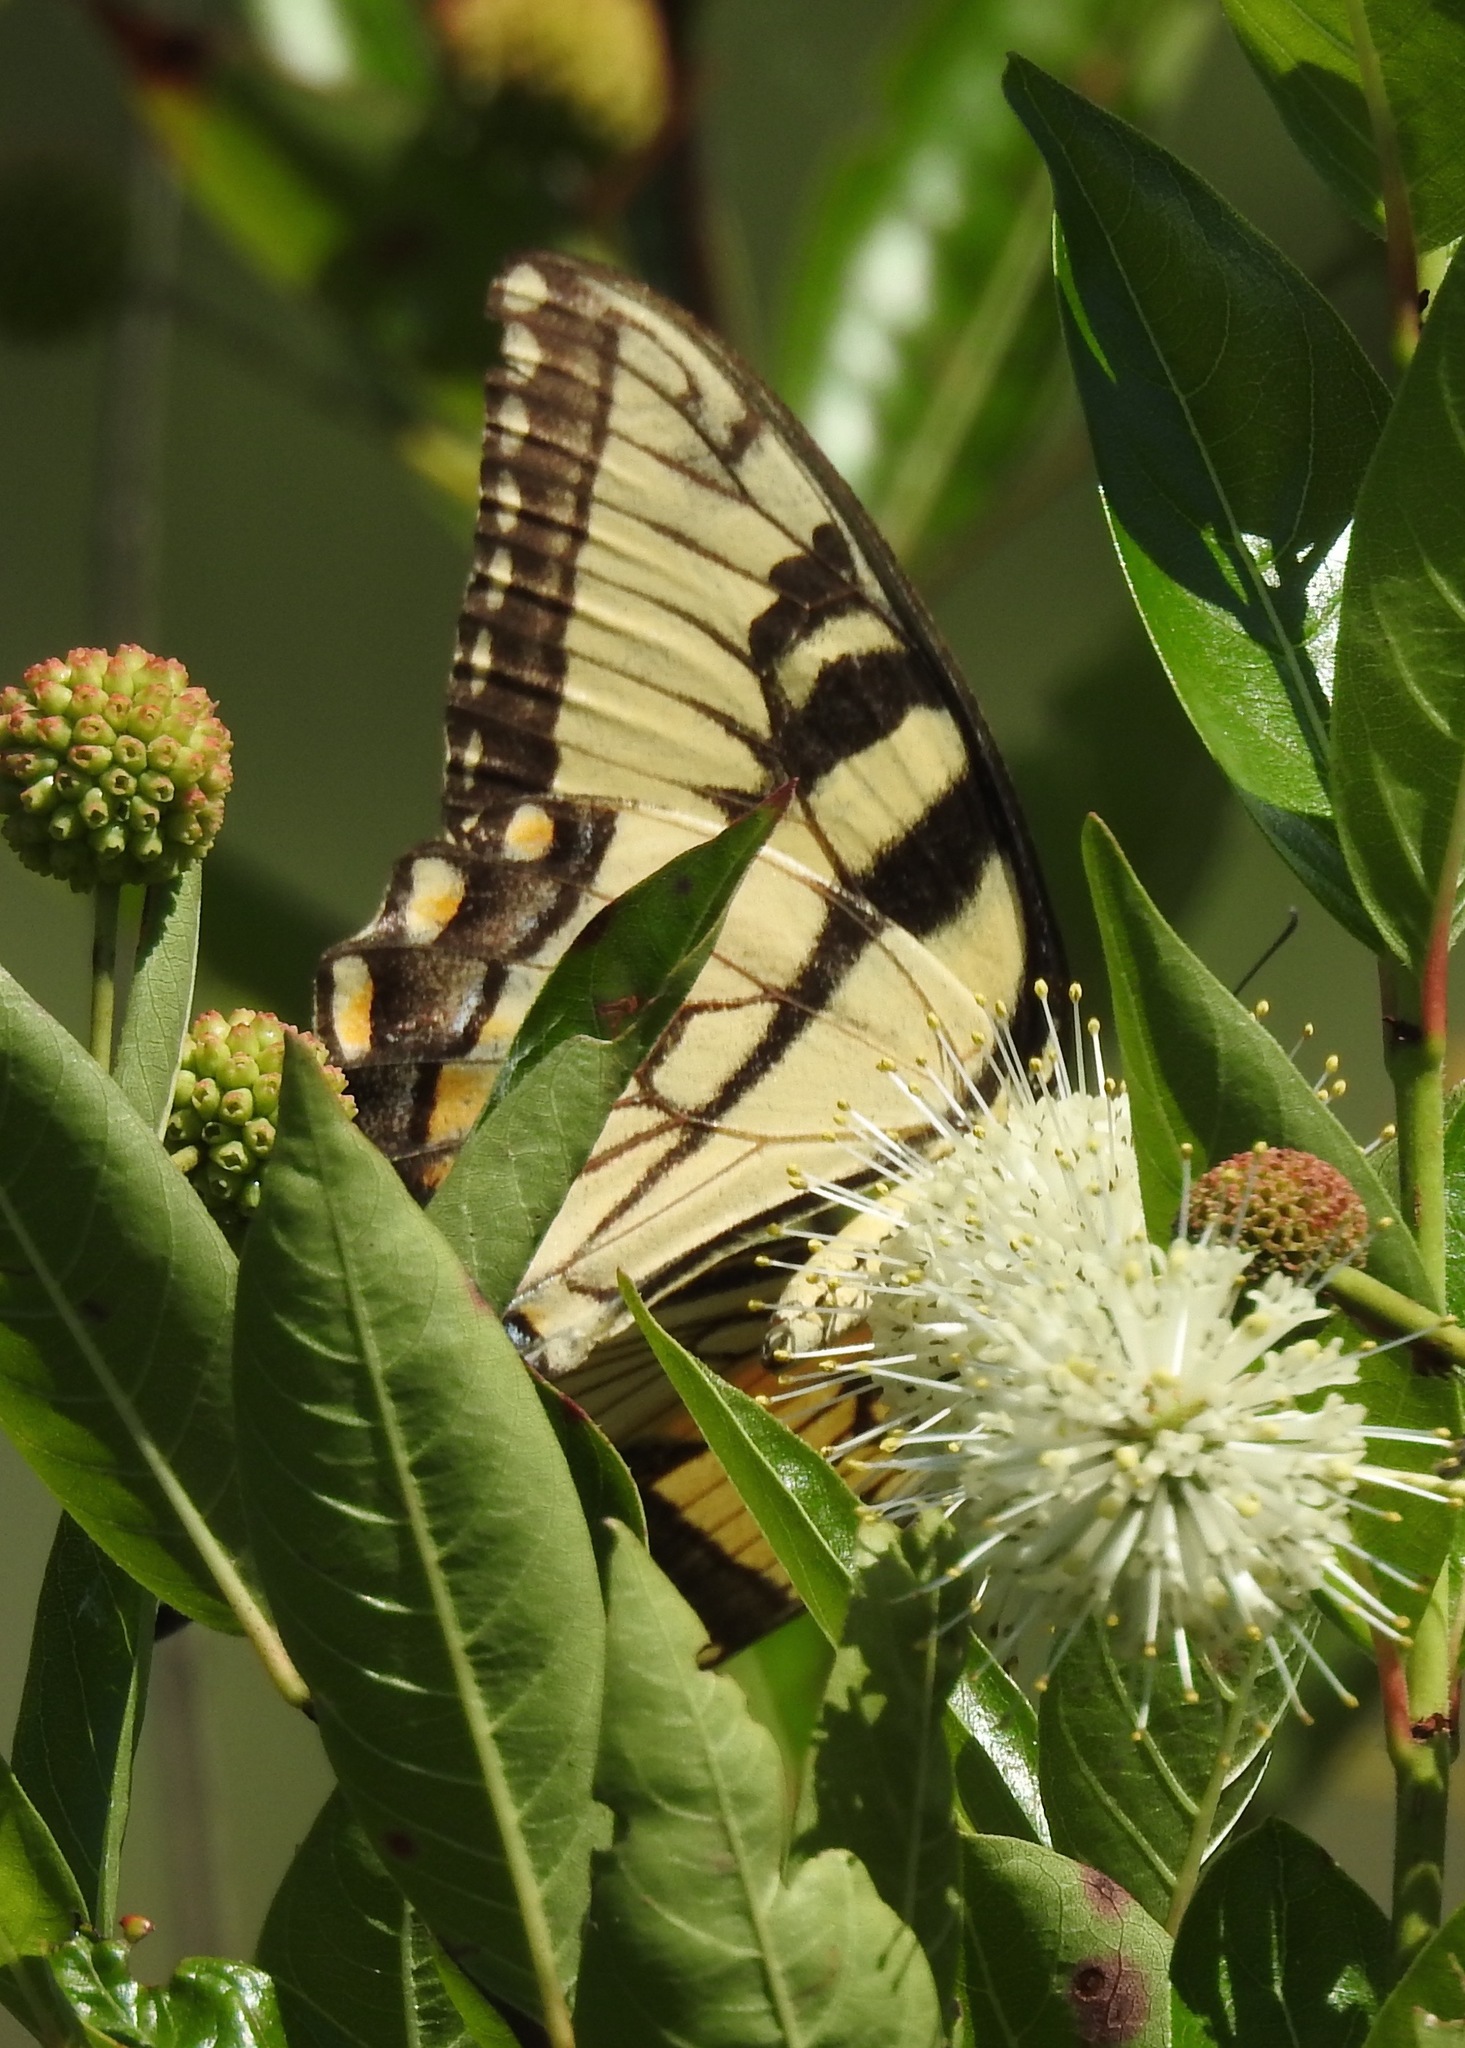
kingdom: Animalia
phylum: Arthropoda
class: Insecta
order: Lepidoptera
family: Papilionidae
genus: Papilio
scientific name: Papilio glaucus
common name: Tiger swallowtail
